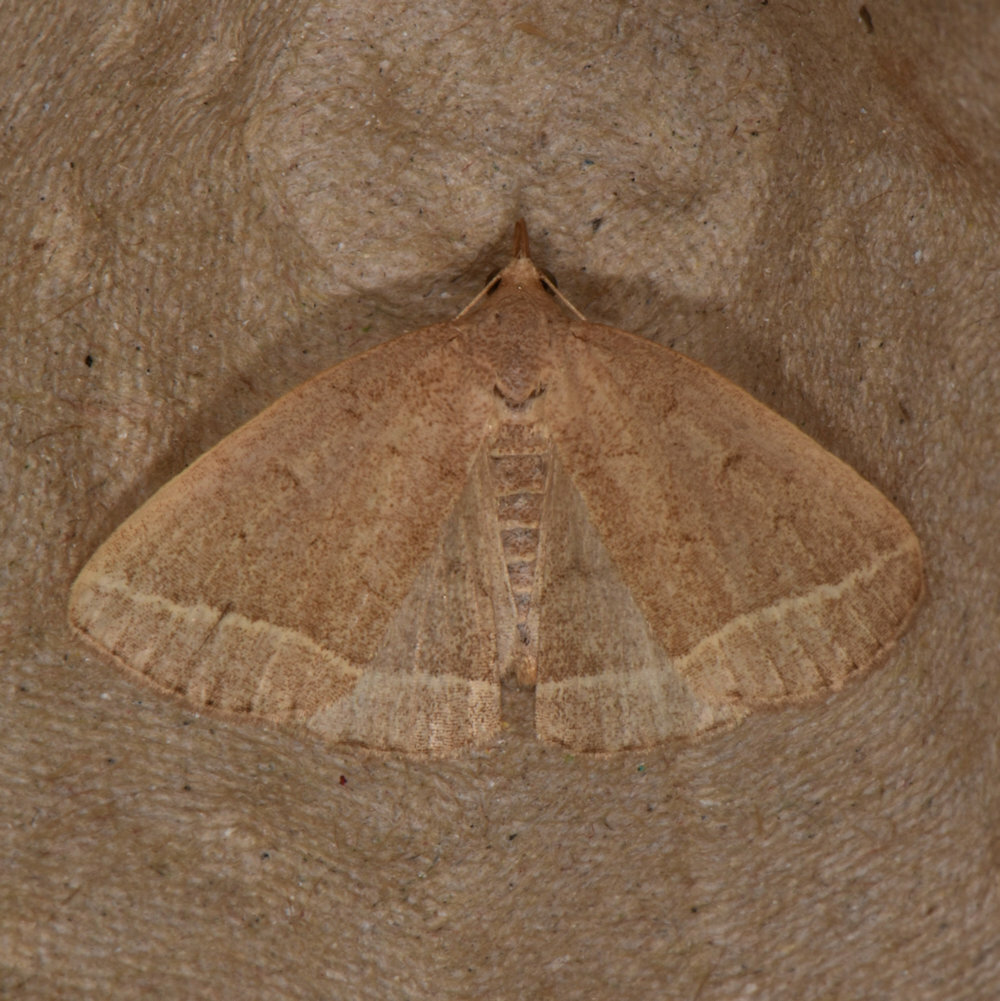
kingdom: Animalia
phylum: Arthropoda
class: Insecta
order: Lepidoptera
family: Erebidae
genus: Zanclognatha
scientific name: Zanclognatha marcidilinea
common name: Yellowish fan-foot
